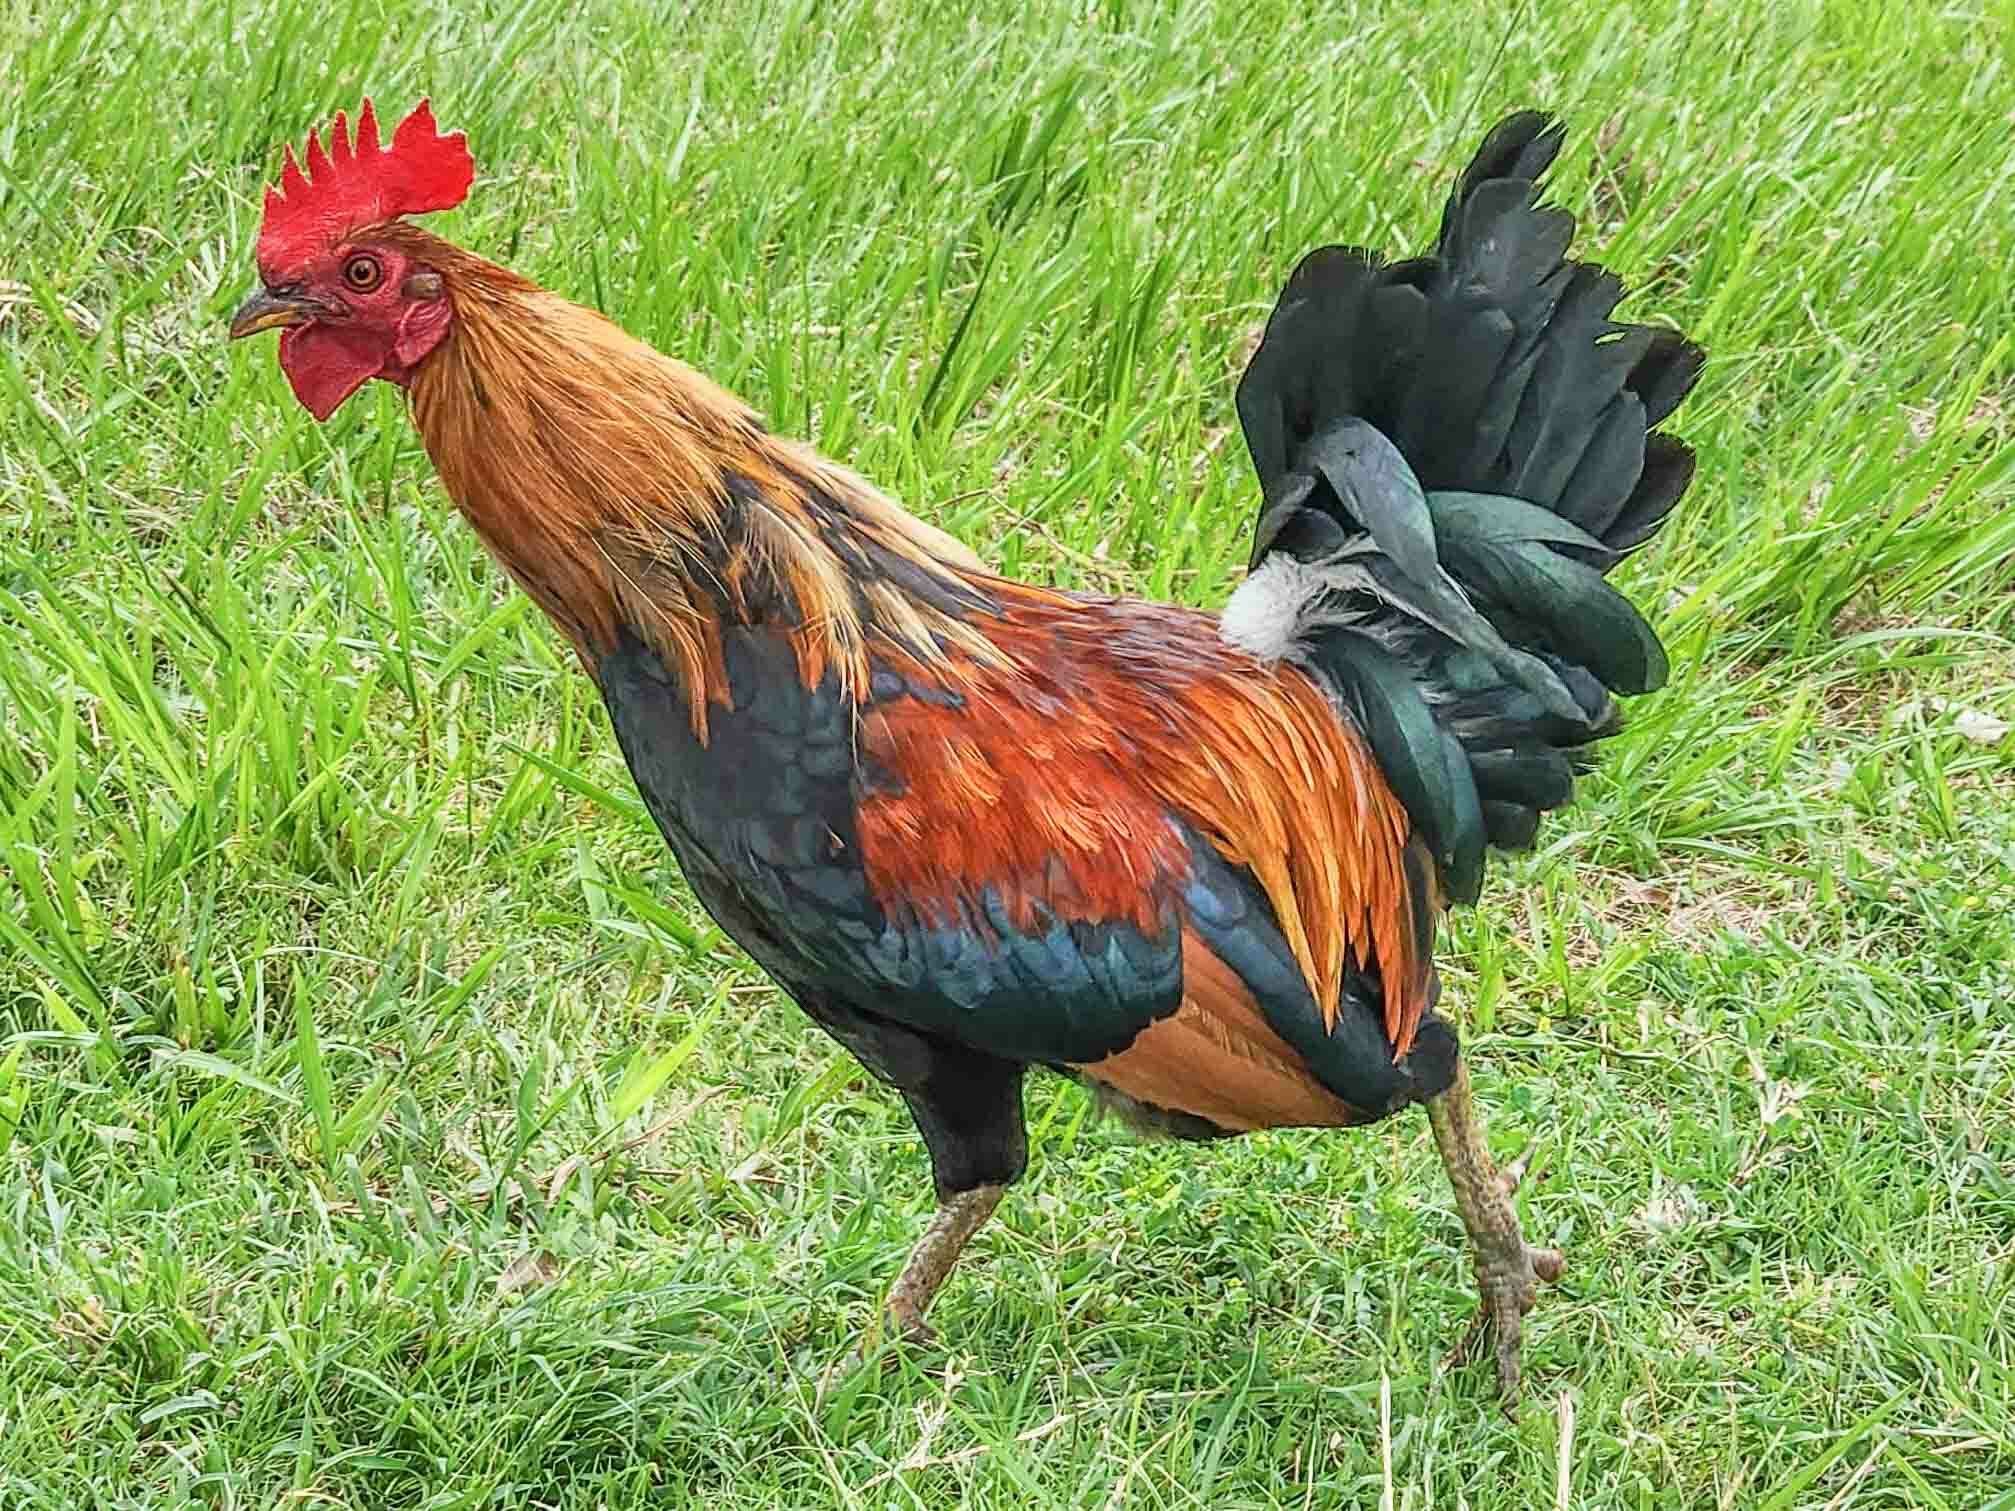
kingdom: Animalia
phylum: Chordata
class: Aves
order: Galliformes
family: Phasianidae
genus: Gallus
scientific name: Gallus gallus
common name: Red junglefowl
